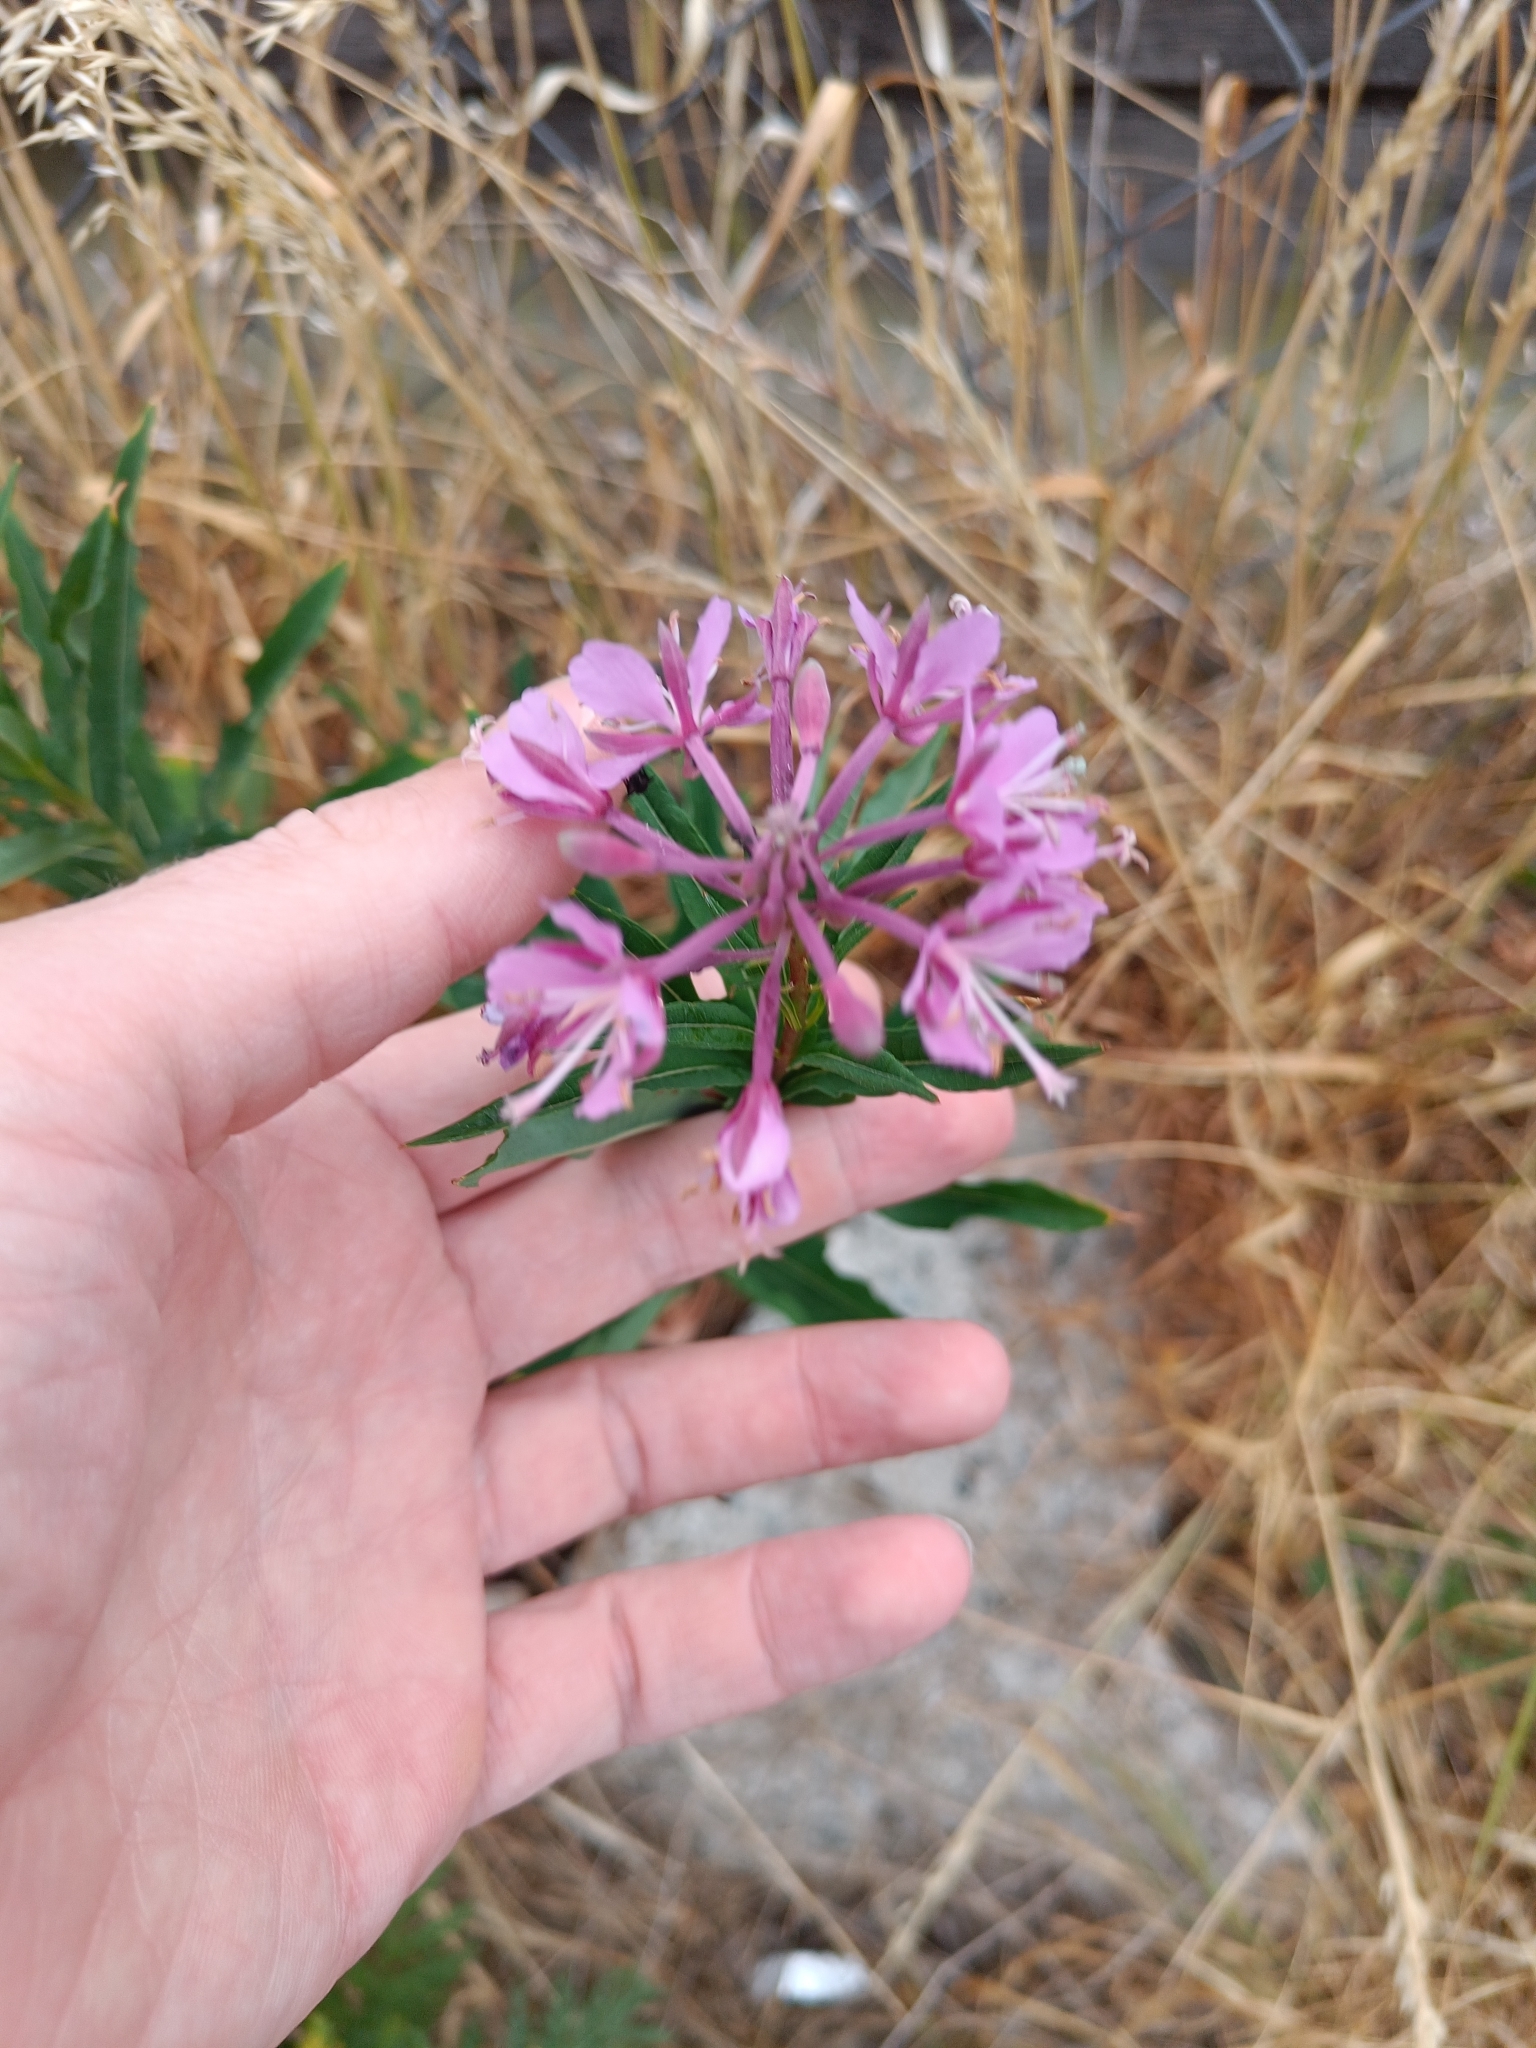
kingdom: Plantae
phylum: Tracheophyta
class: Magnoliopsida
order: Myrtales
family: Onagraceae
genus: Chamaenerion
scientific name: Chamaenerion angustifolium
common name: Fireweed
